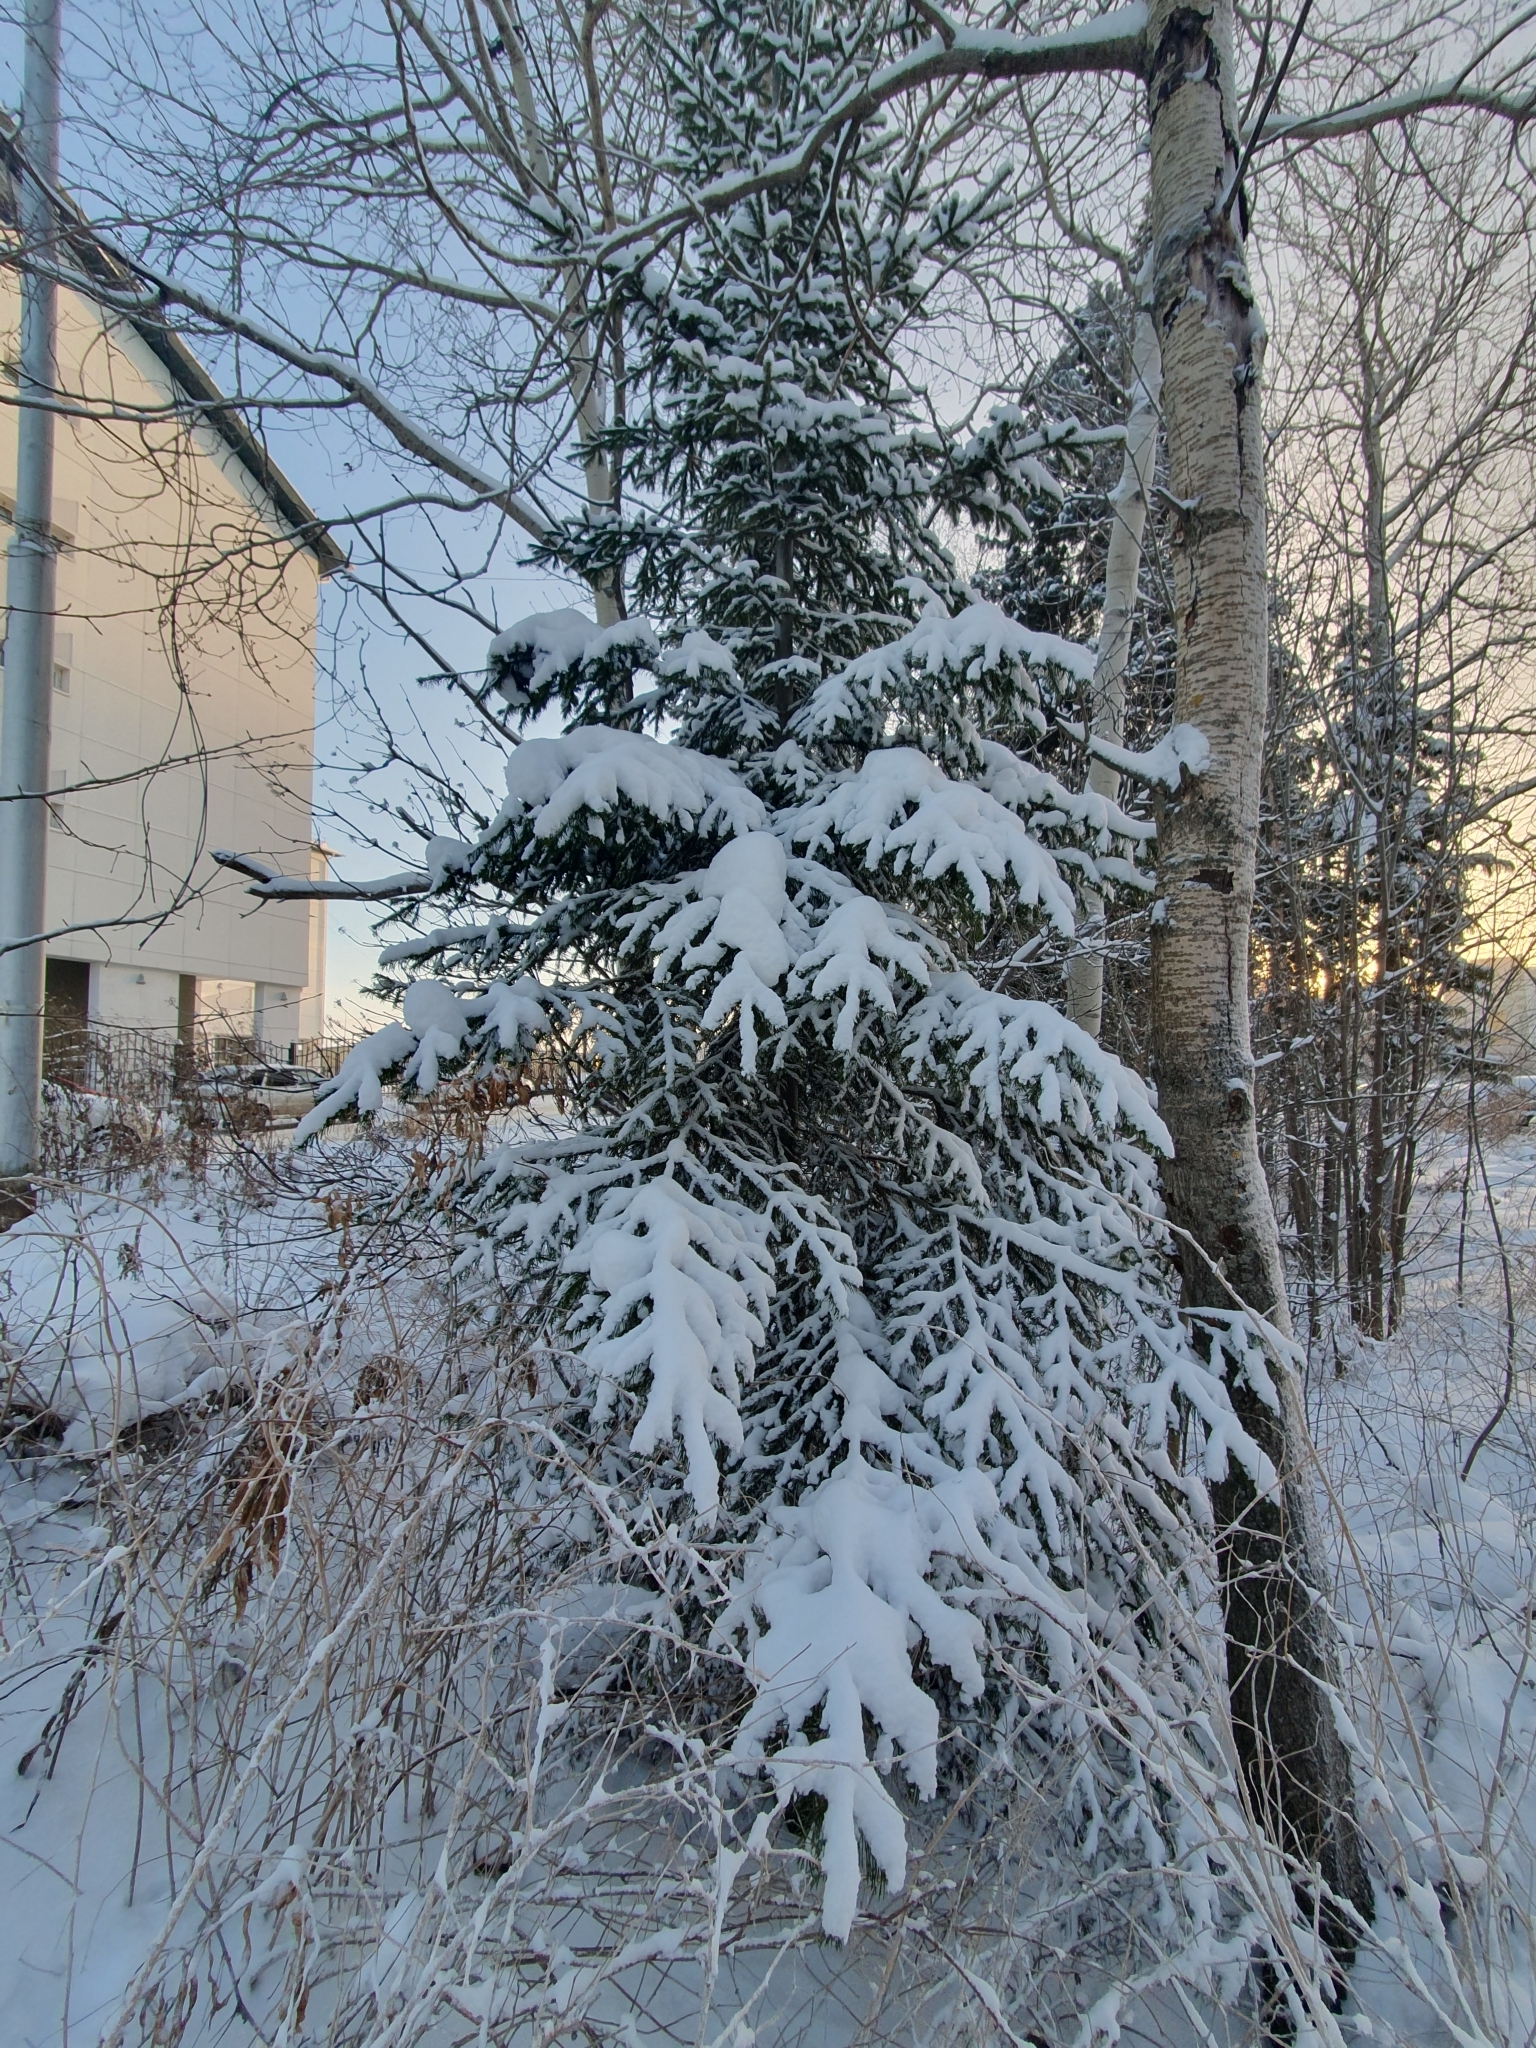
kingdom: Plantae
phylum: Tracheophyta
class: Pinopsida
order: Pinales
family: Pinaceae
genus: Picea
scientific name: Picea obovata
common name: Siberian spruce
